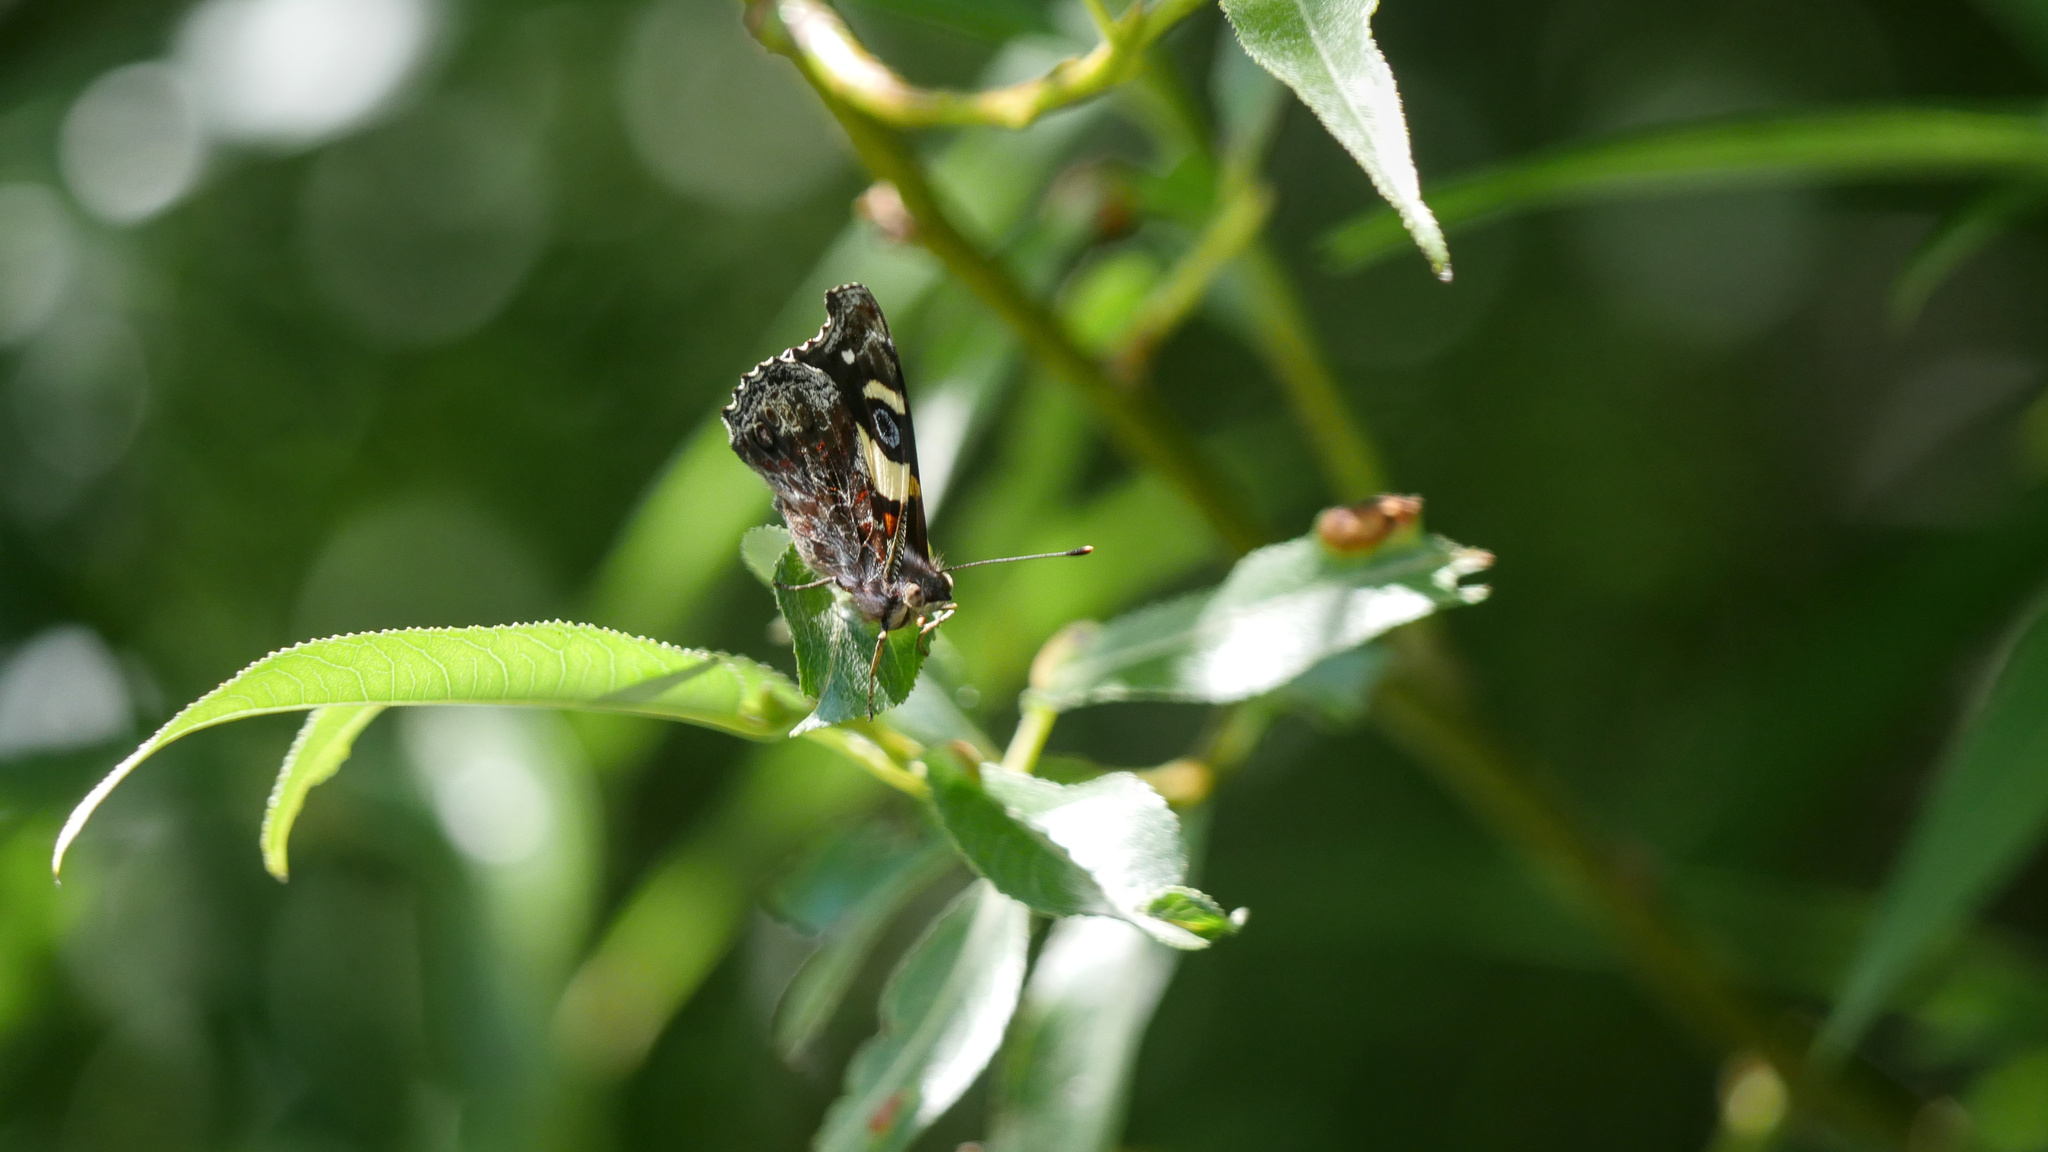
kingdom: Animalia
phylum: Arthropoda
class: Insecta
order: Lepidoptera
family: Nymphalidae
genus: Vanessa
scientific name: Vanessa itea
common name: Yellow admiral
